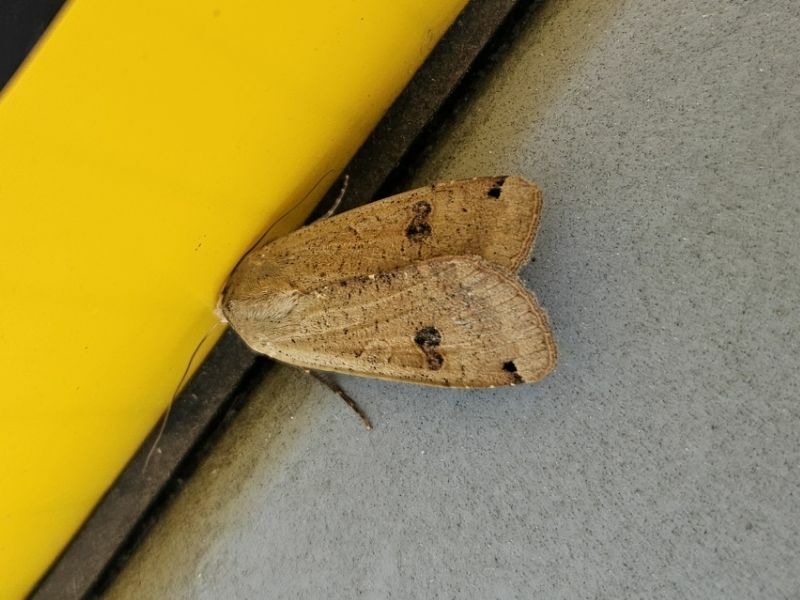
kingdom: Animalia
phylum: Arthropoda
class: Insecta
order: Lepidoptera
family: Noctuidae
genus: Noctua
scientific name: Noctua pronuba
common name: Large yellow underwing
